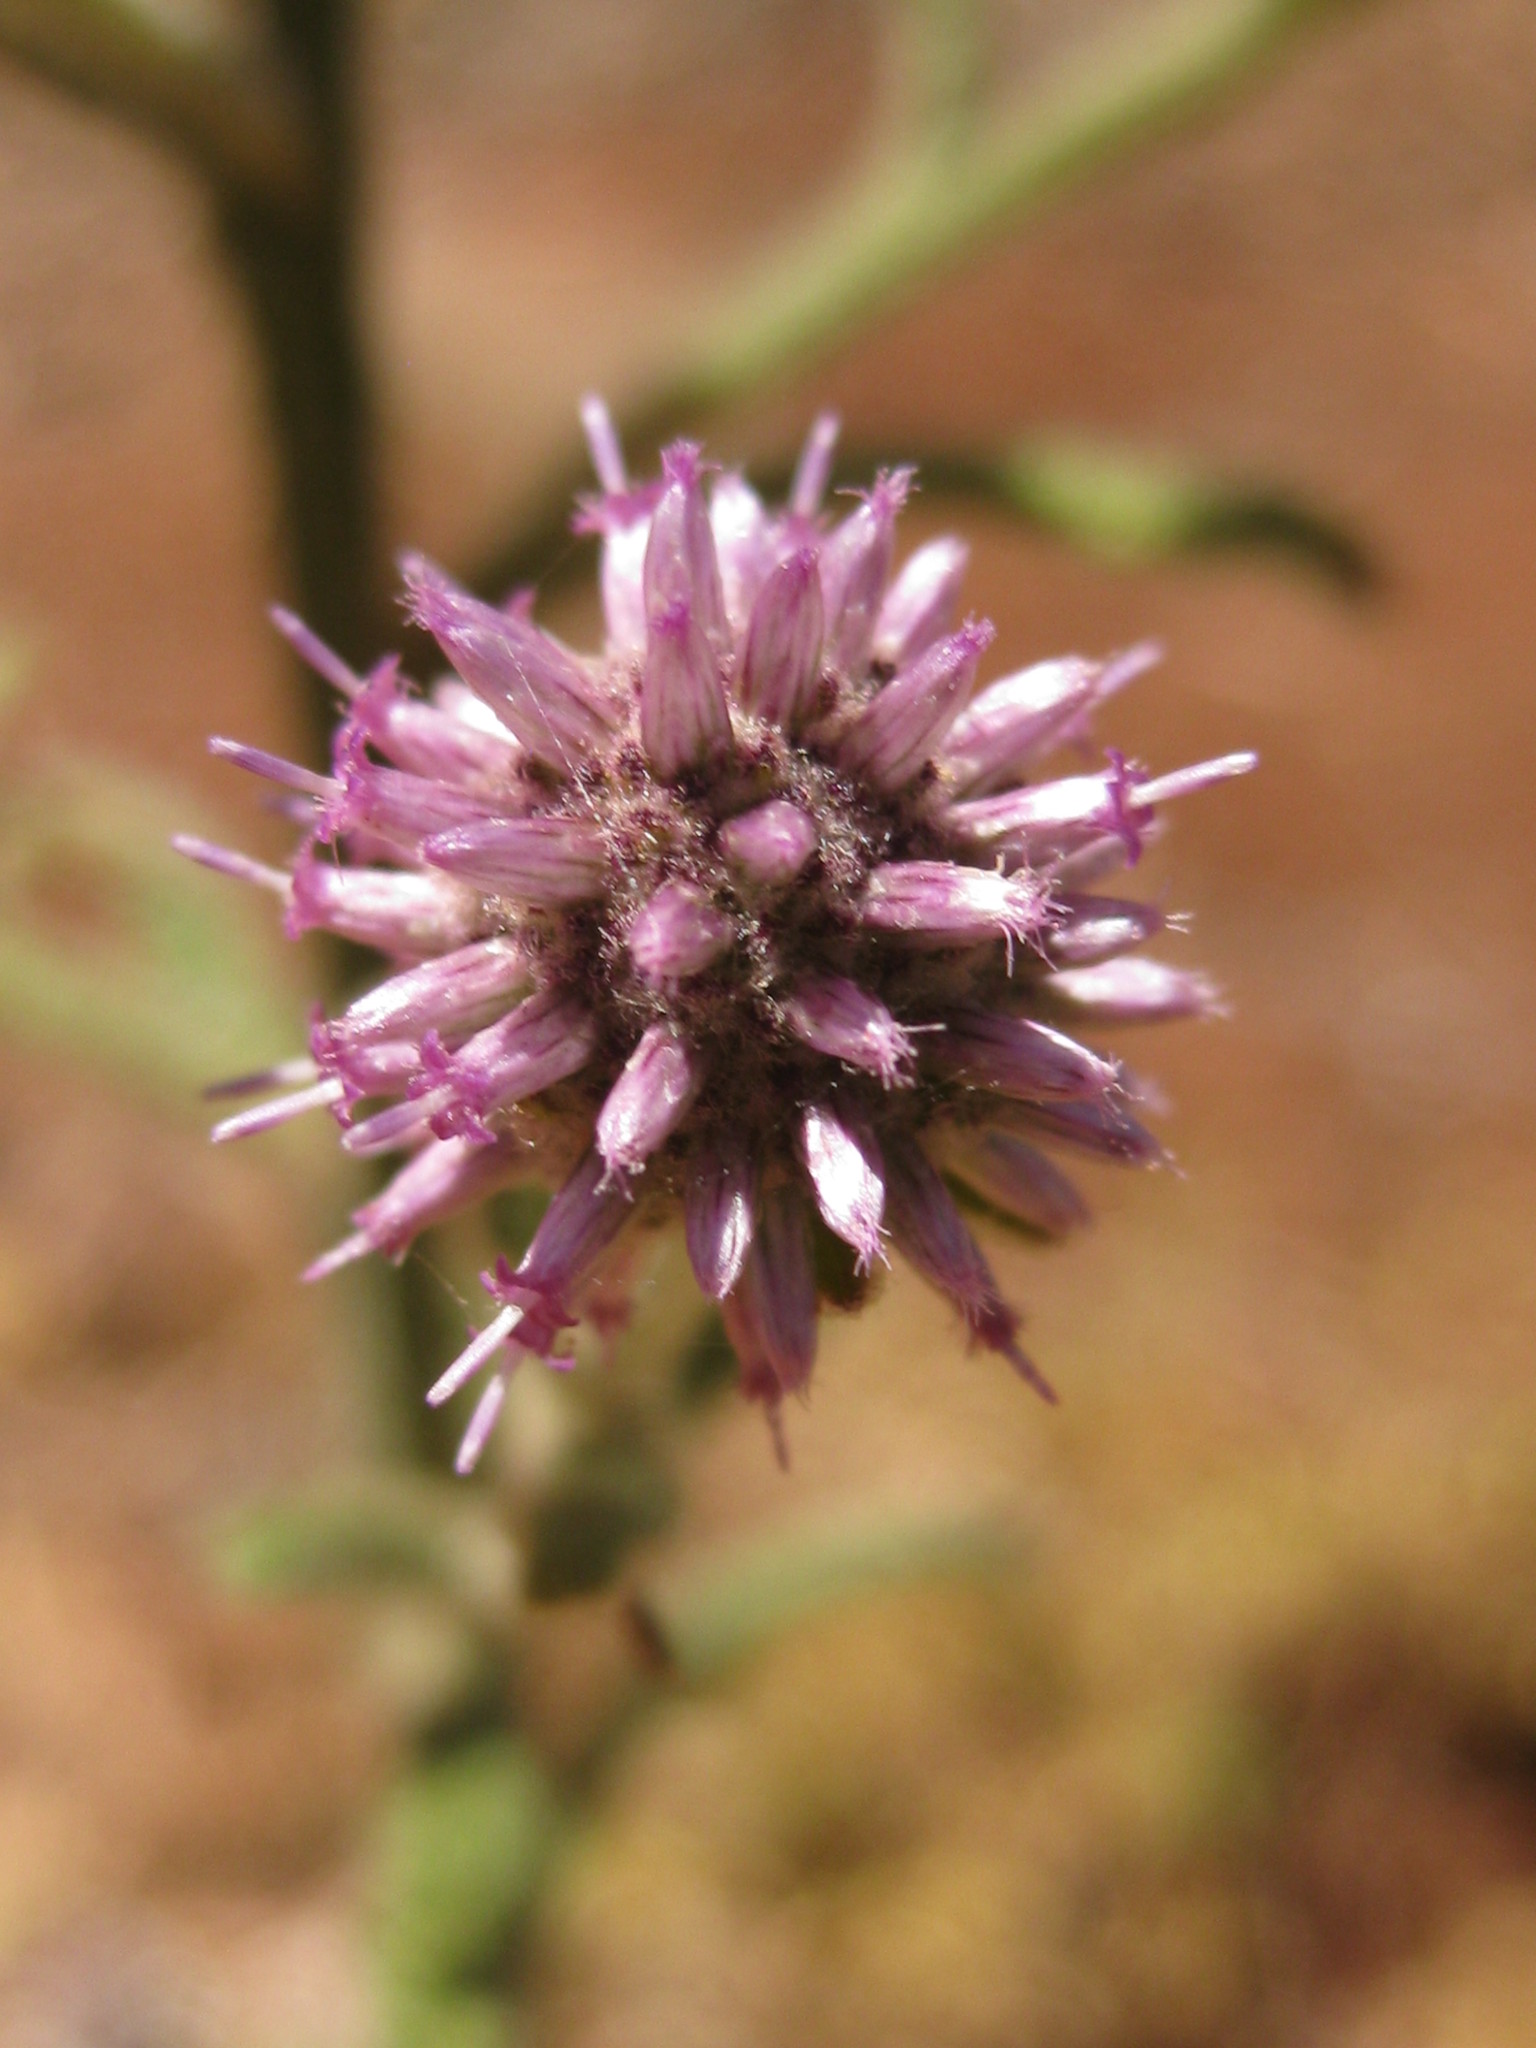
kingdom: Plantae
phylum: Tracheophyta
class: Magnoliopsida
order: Asterales
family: Asteraceae
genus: Pterocaulon
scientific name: Pterocaulon sphacelatum
